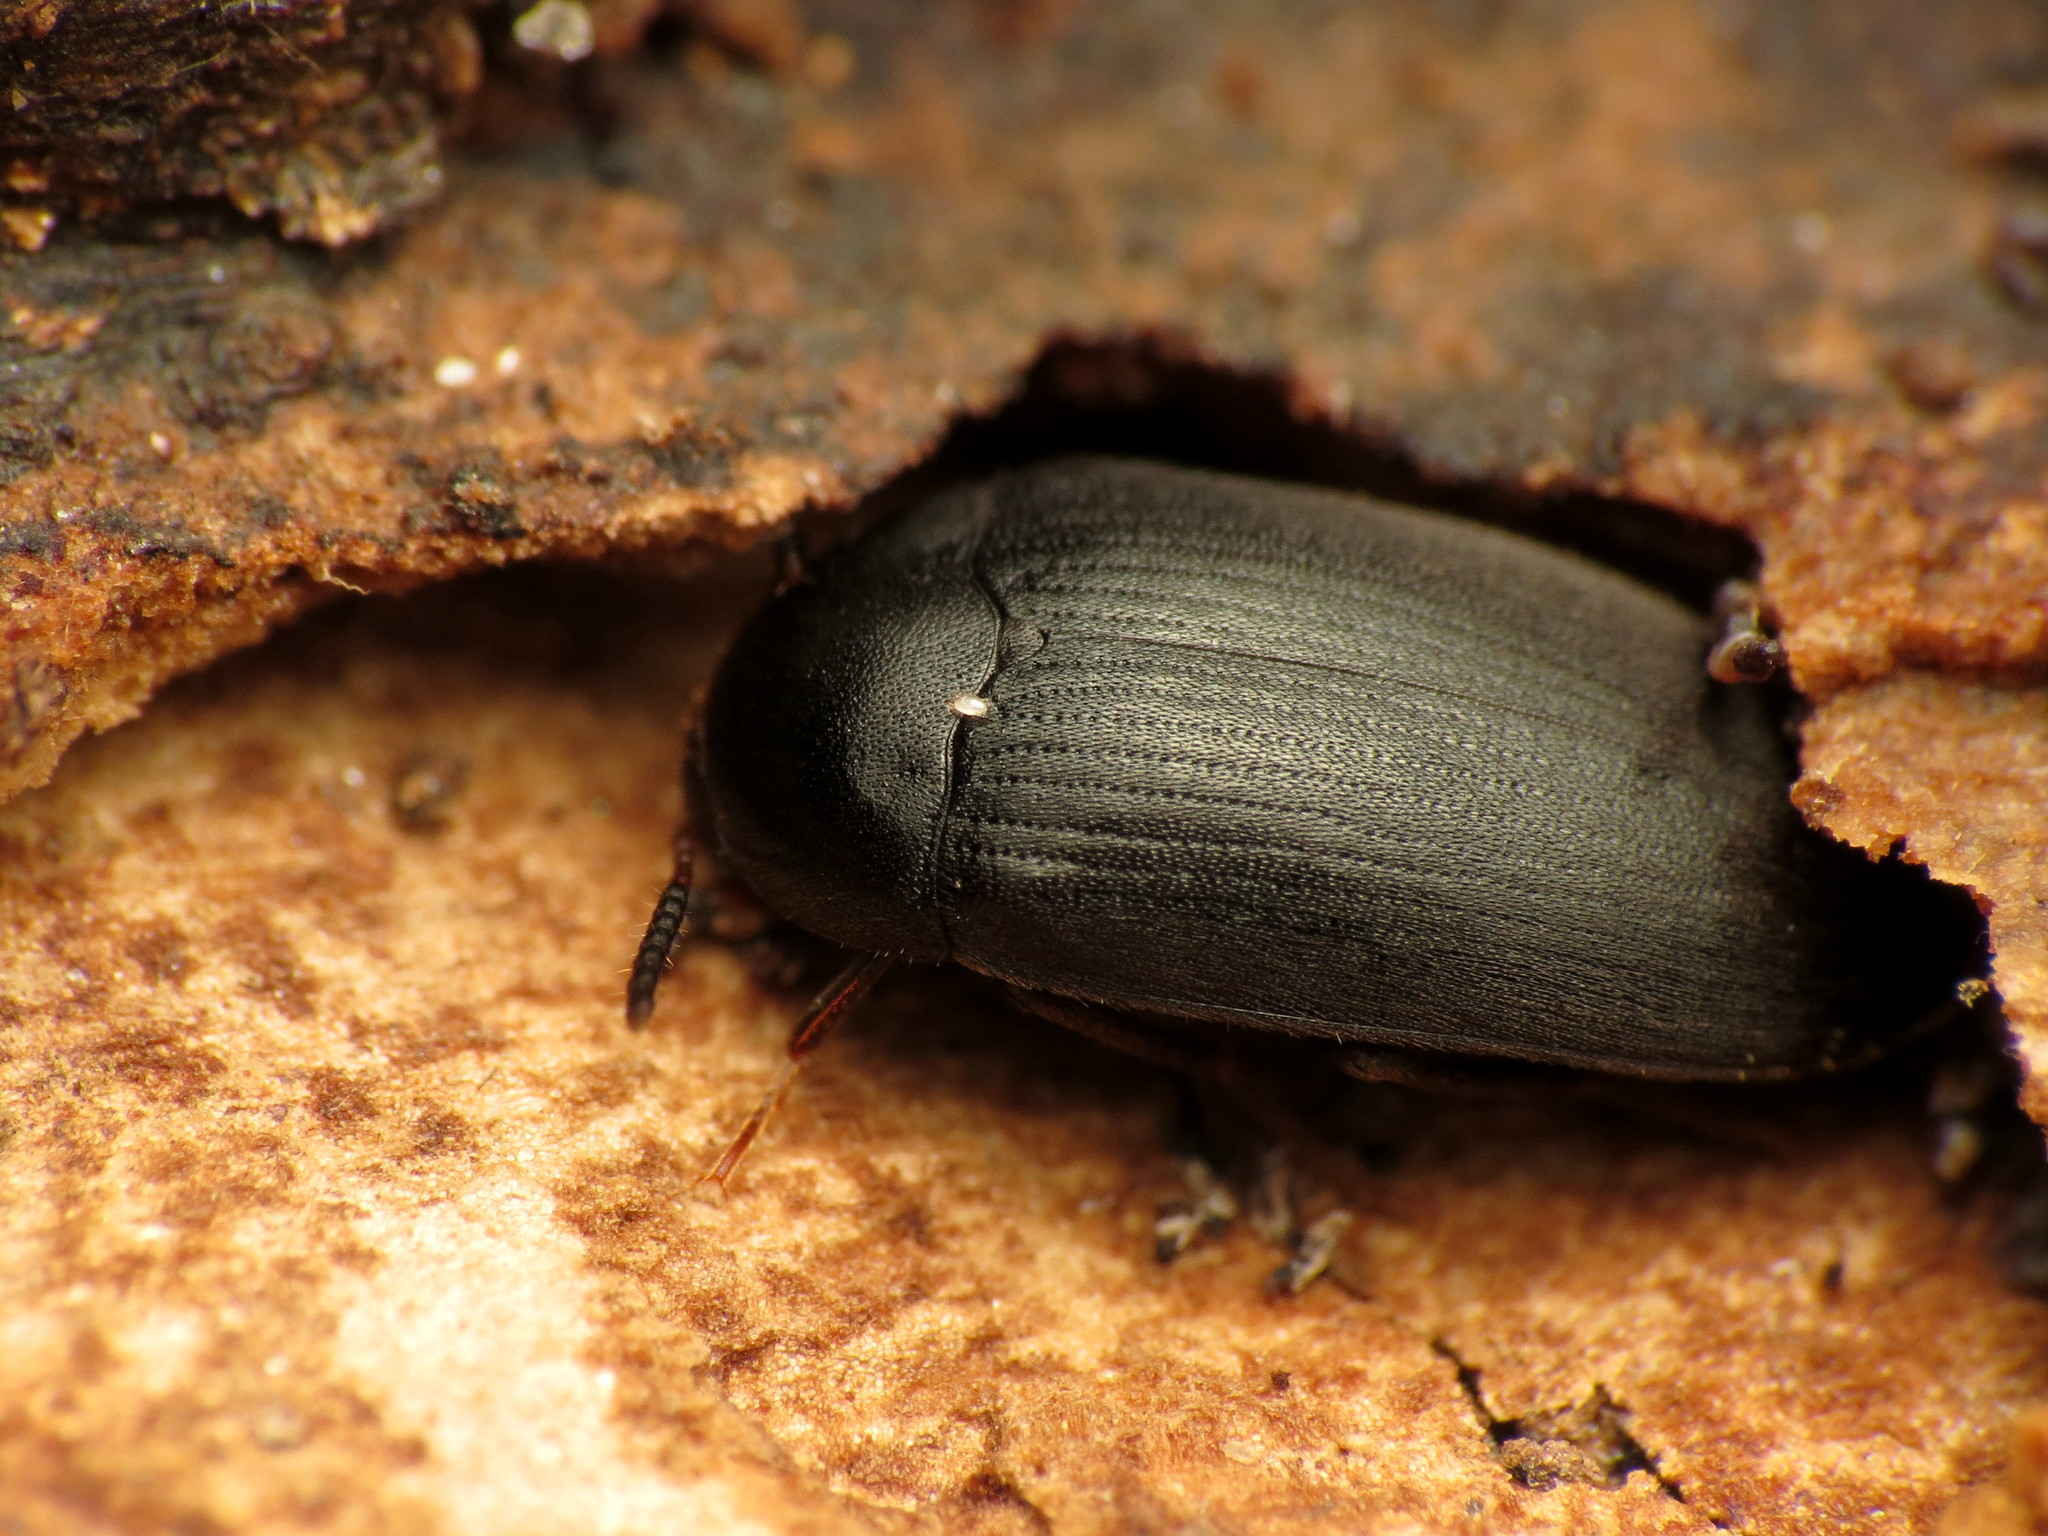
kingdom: Animalia
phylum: Arthropoda
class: Insecta
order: Coleoptera
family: Tetratomidae
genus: Eustrophopsis
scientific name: Eustrophopsis bicolor
